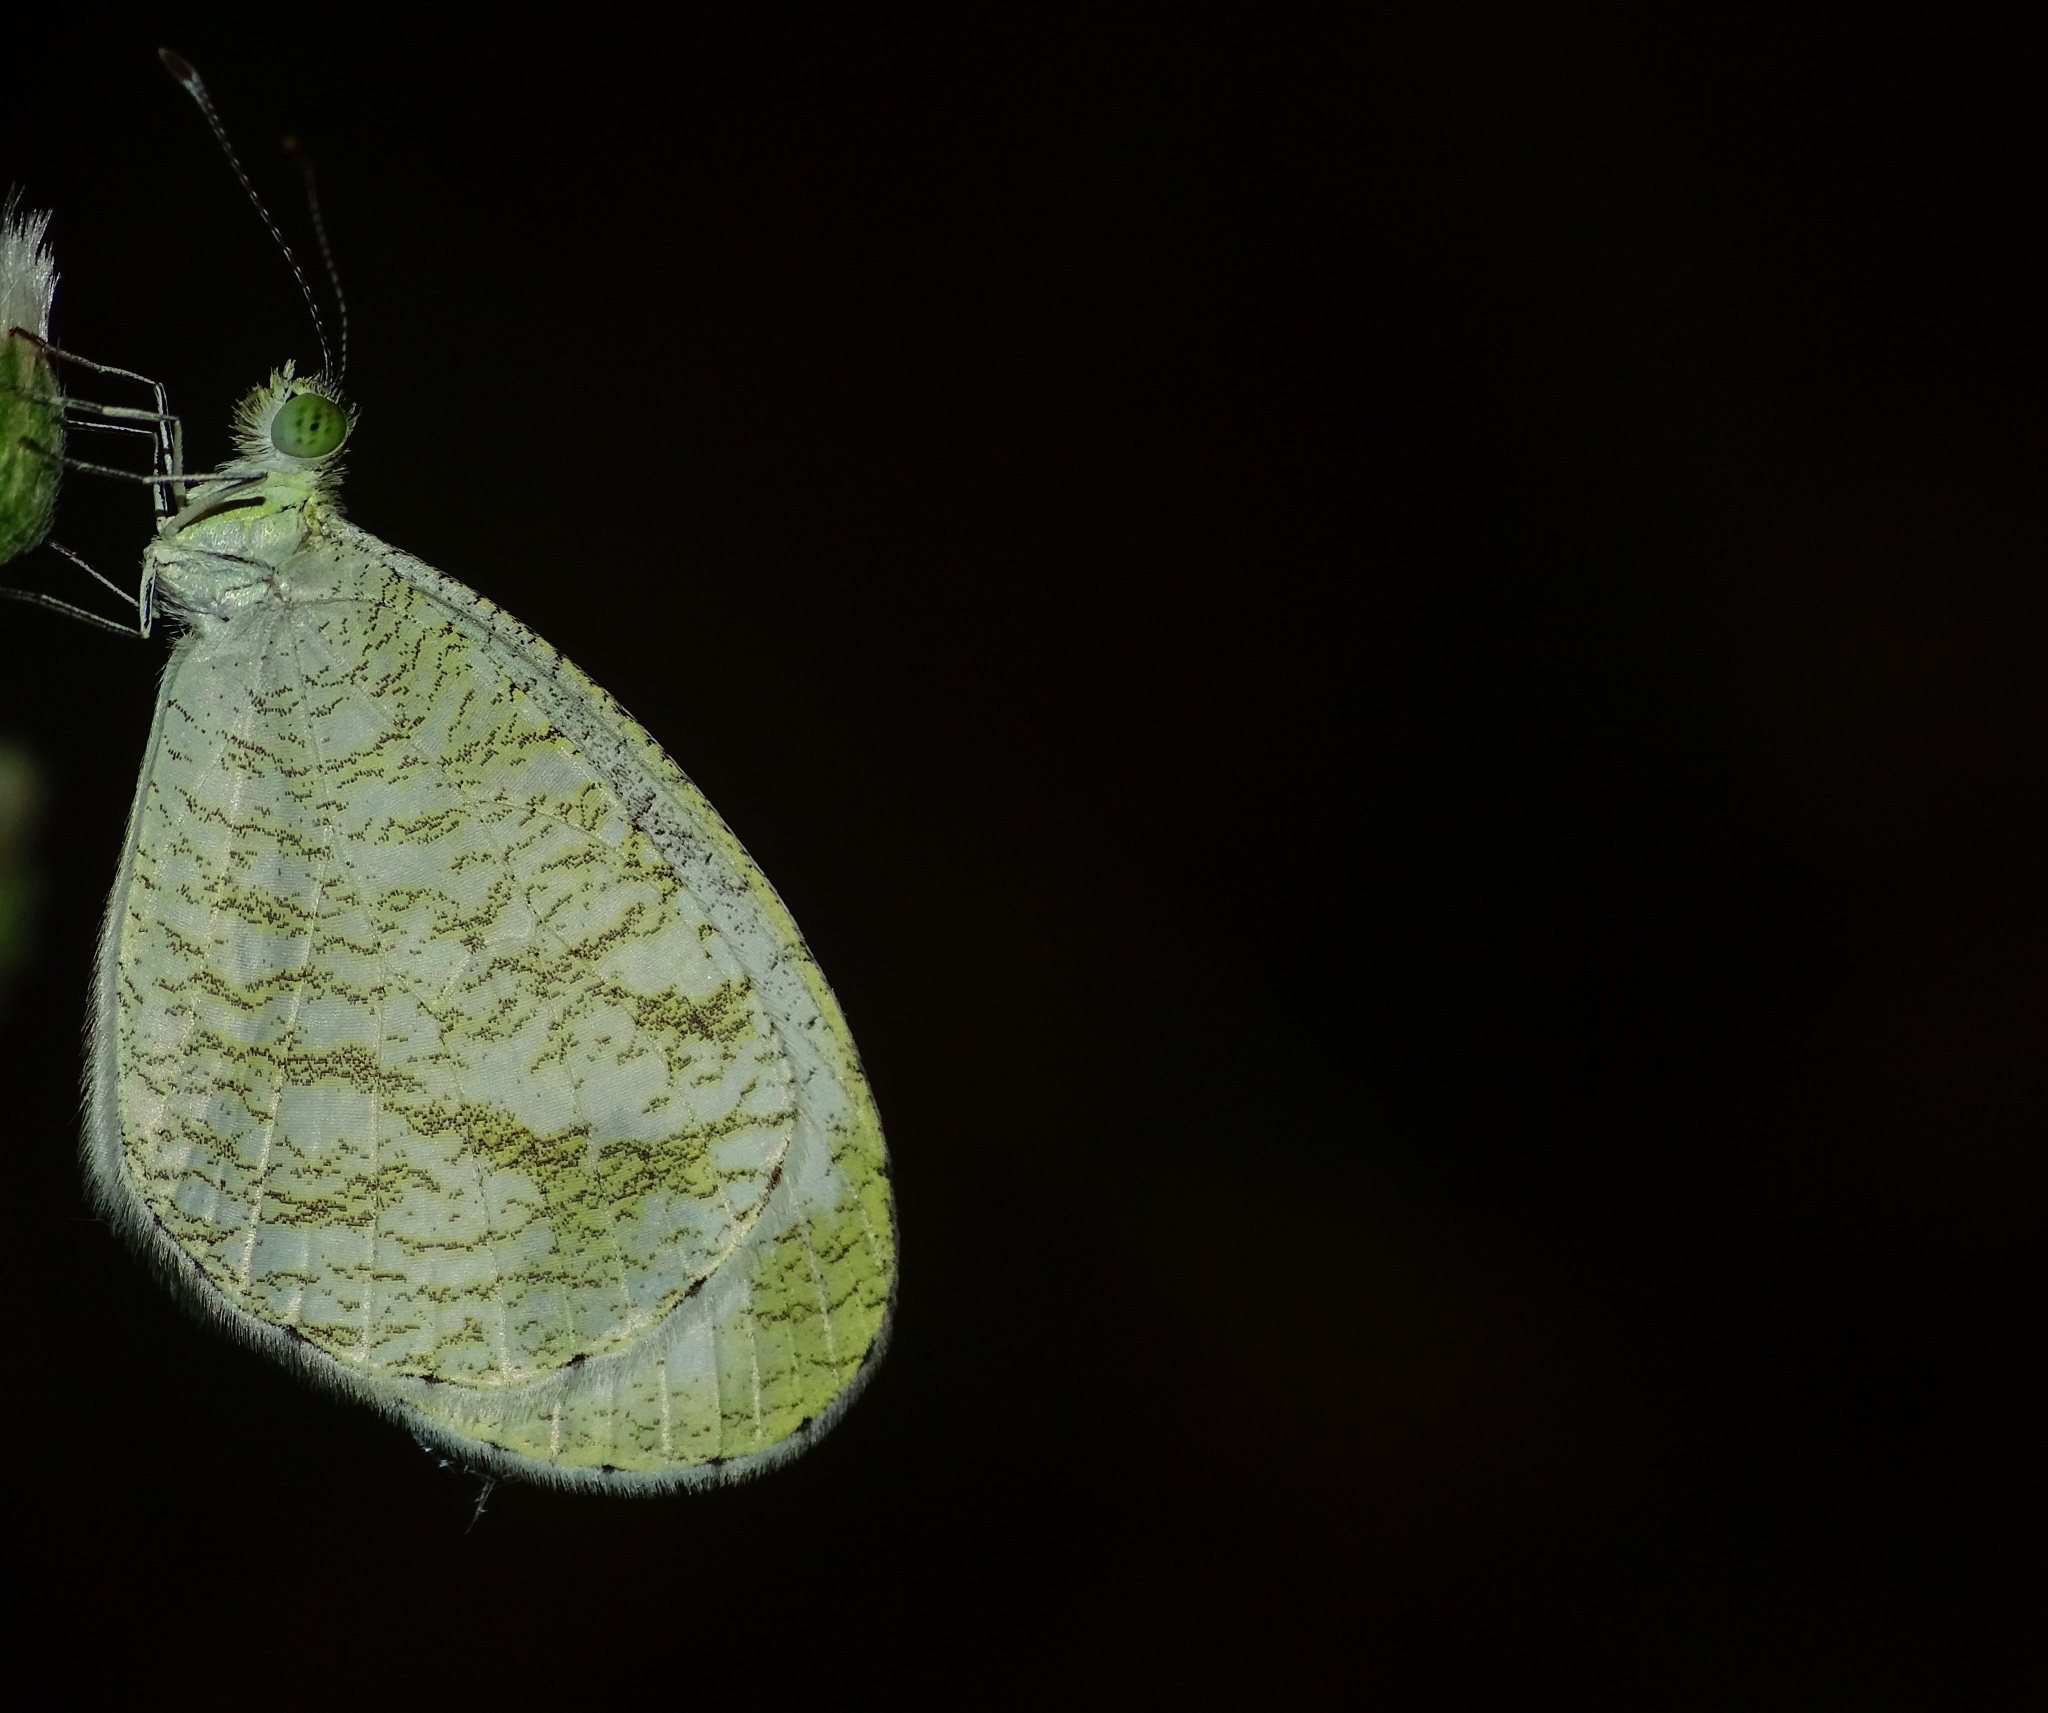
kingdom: Animalia
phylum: Arthropoda
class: Insecta
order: Lepidoptera
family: Pieridae
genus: Leptosia
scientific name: Leptosia nina
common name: Psyche
